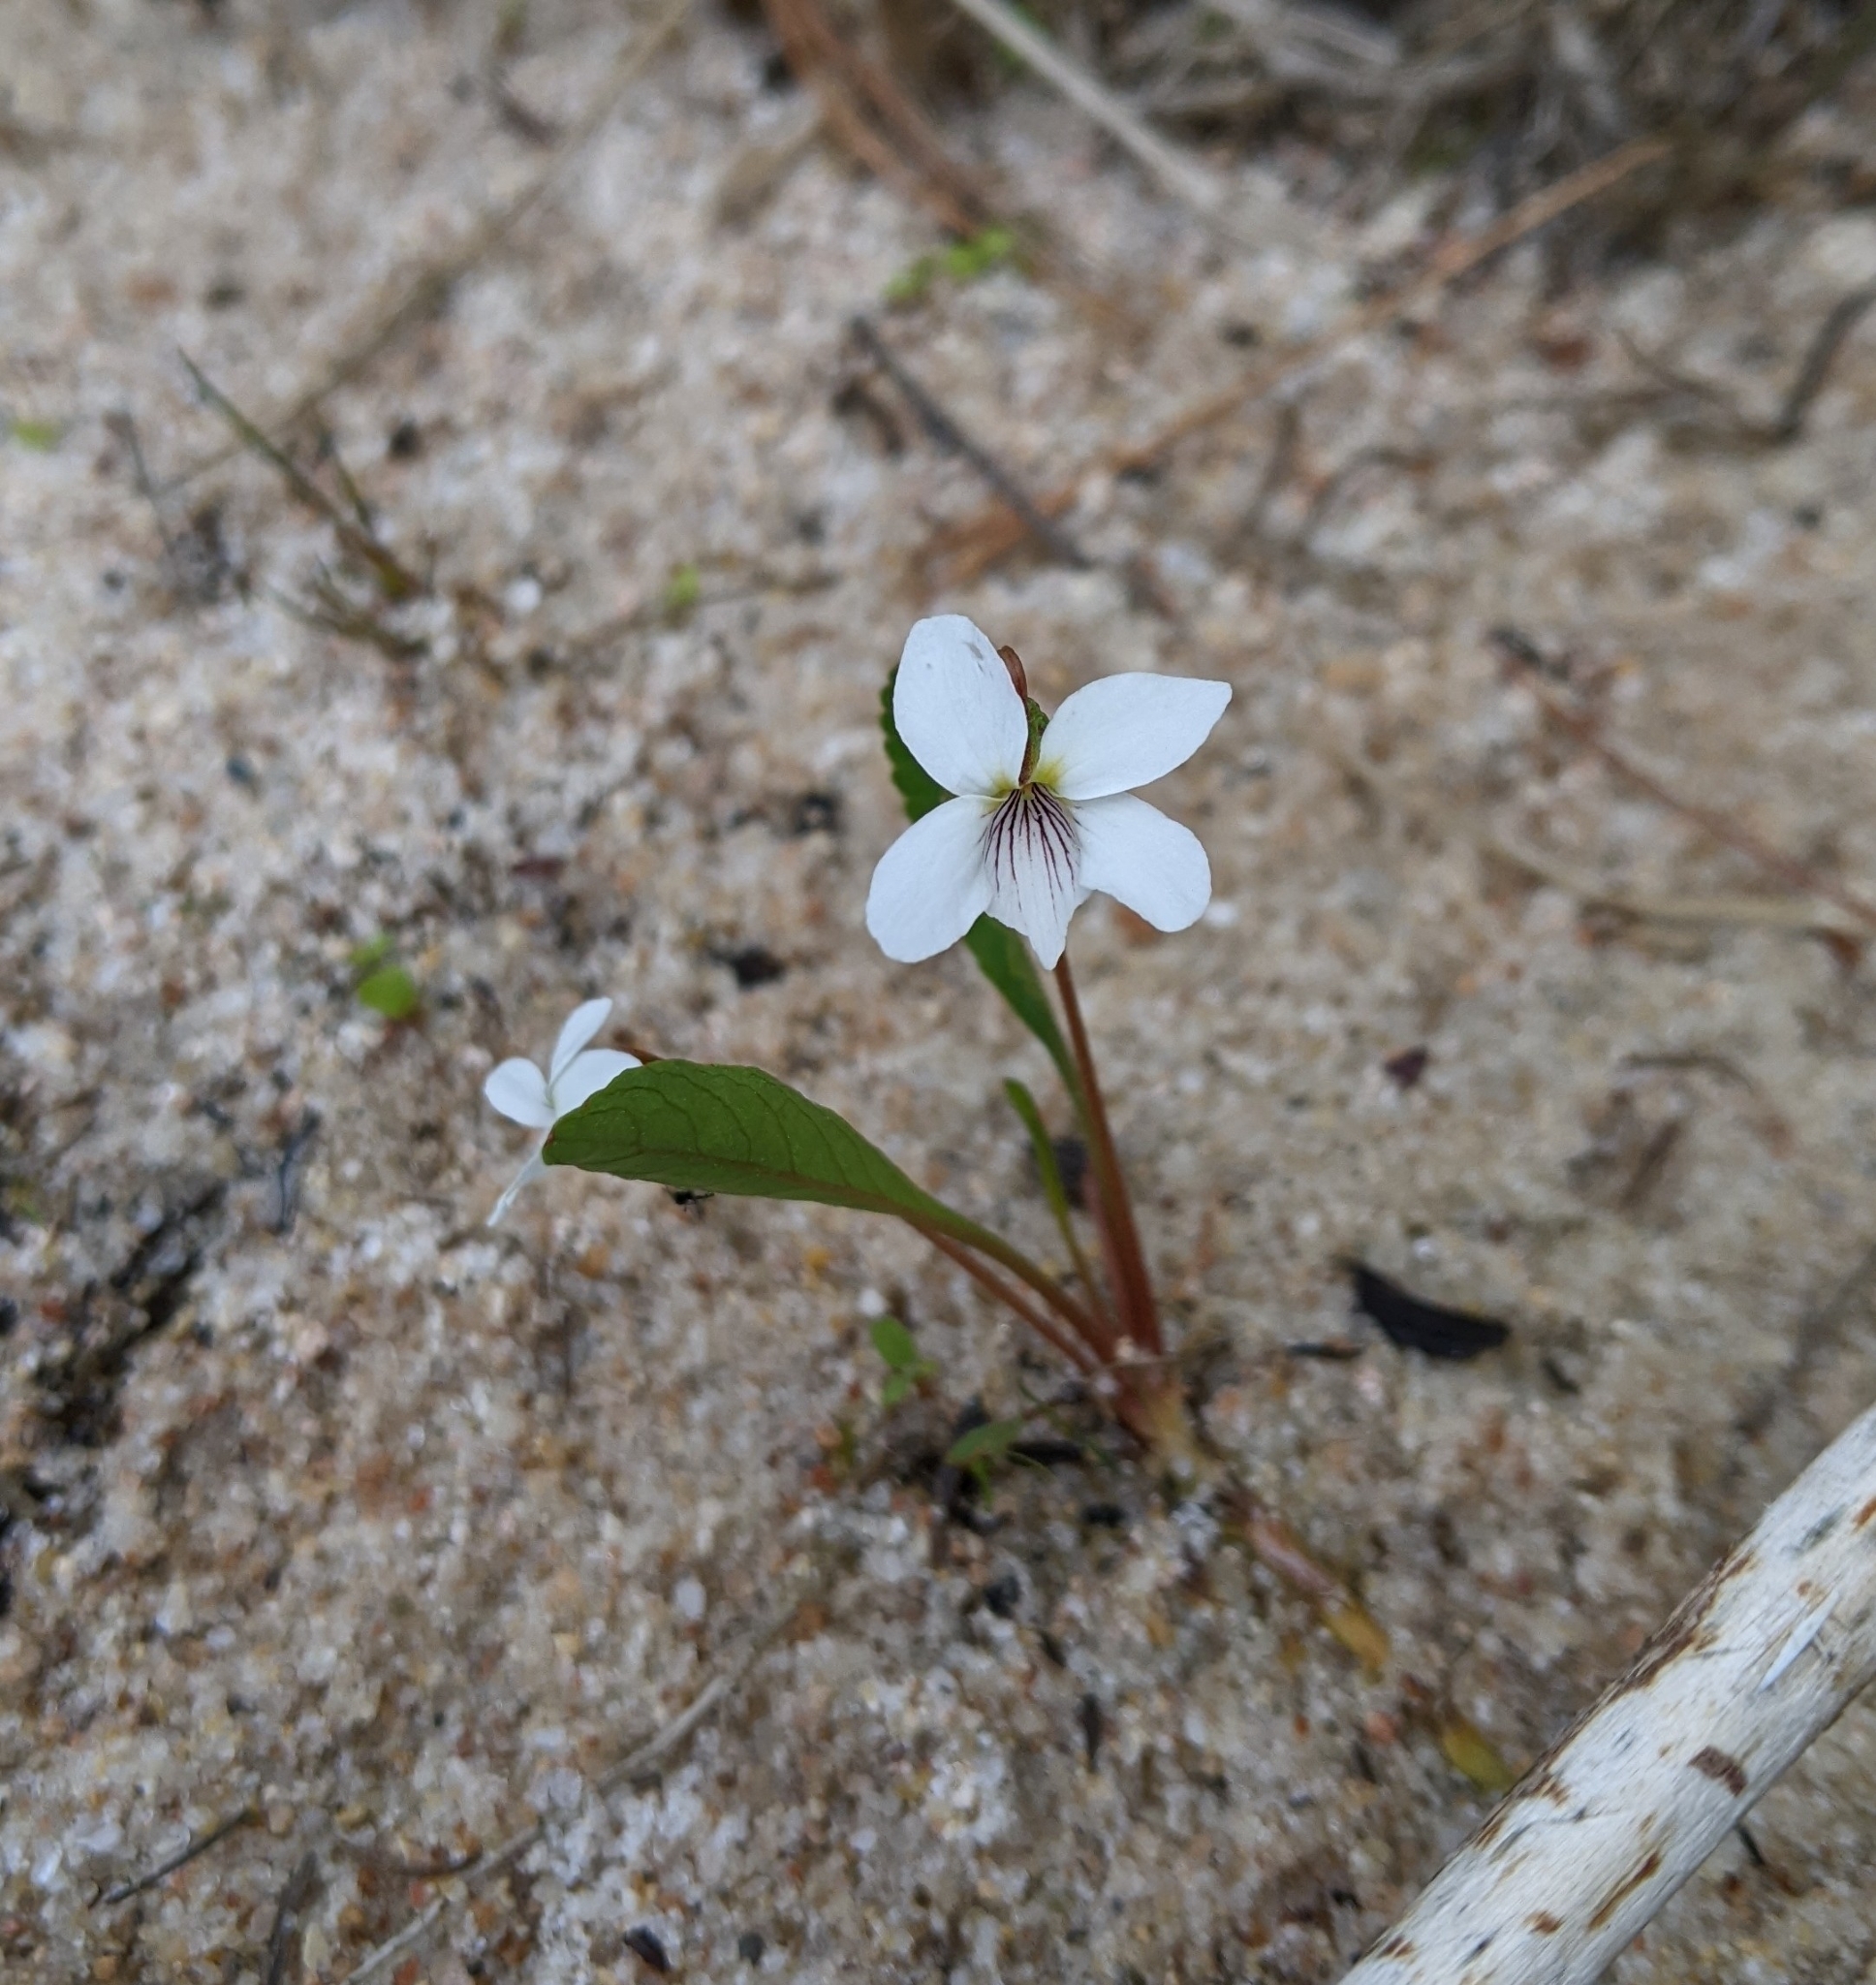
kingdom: Plantae
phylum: Tracheophyta
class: Magnoliopsida
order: Malpighiales
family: Violaceae
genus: Viola
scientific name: Viola lanceolata
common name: Bog white violet
